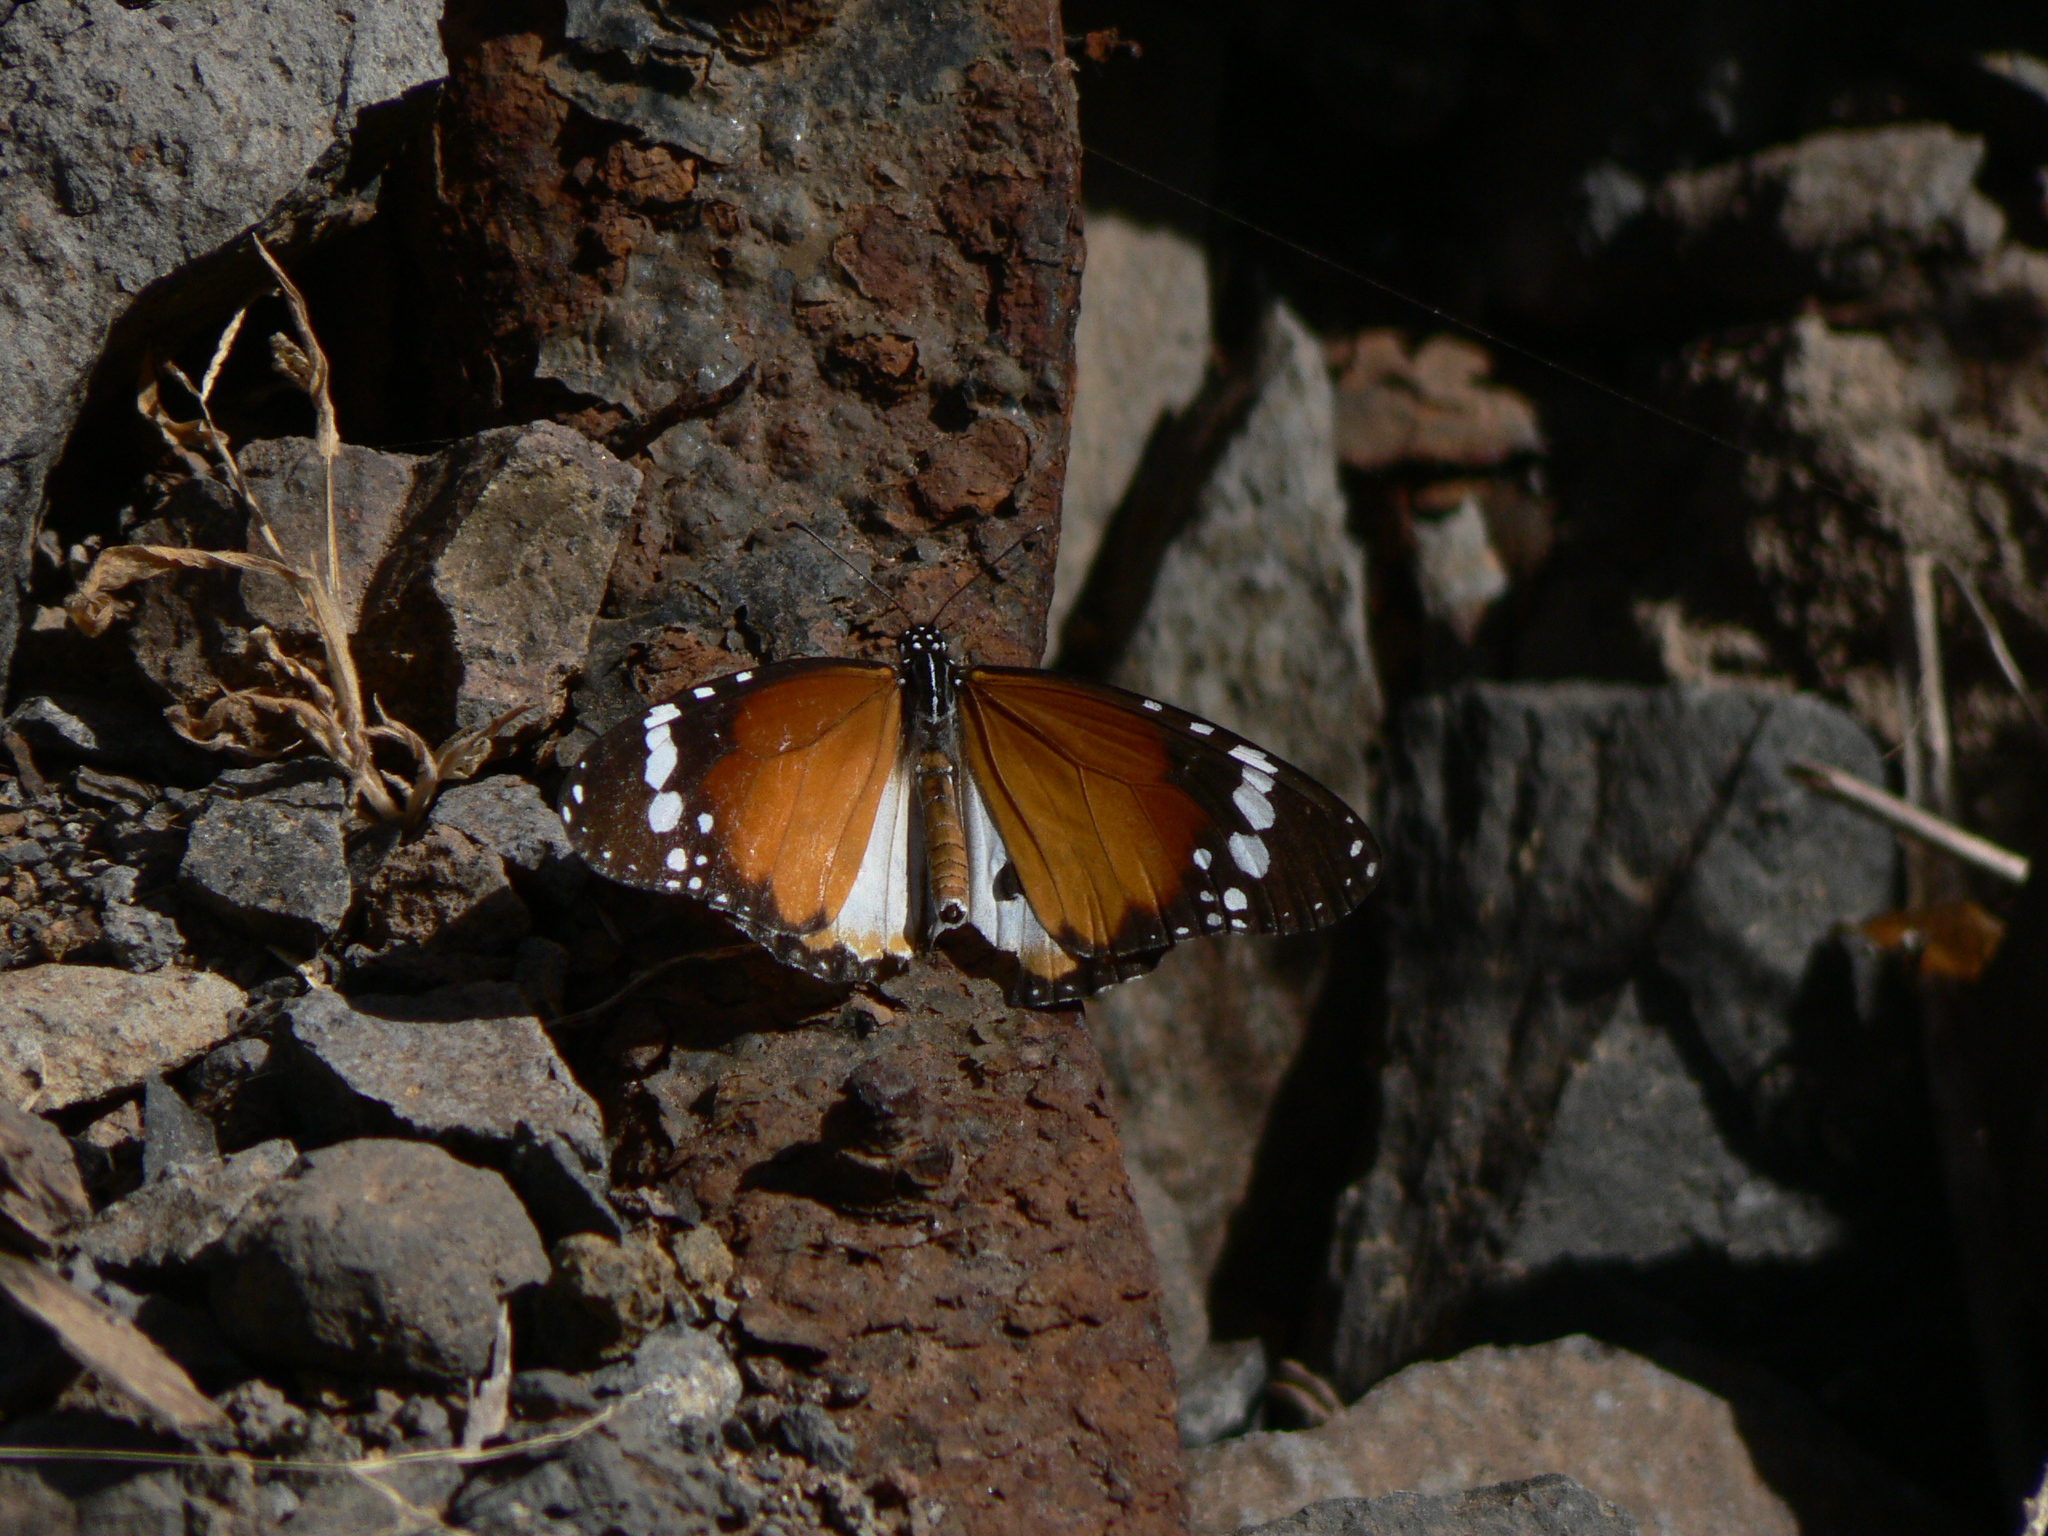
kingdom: Animalia
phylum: Arthropoda
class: Insecta
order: Lepidoptera
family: Nymphalidae
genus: Danaus
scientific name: Danaus chrysippus
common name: Plain tiger
